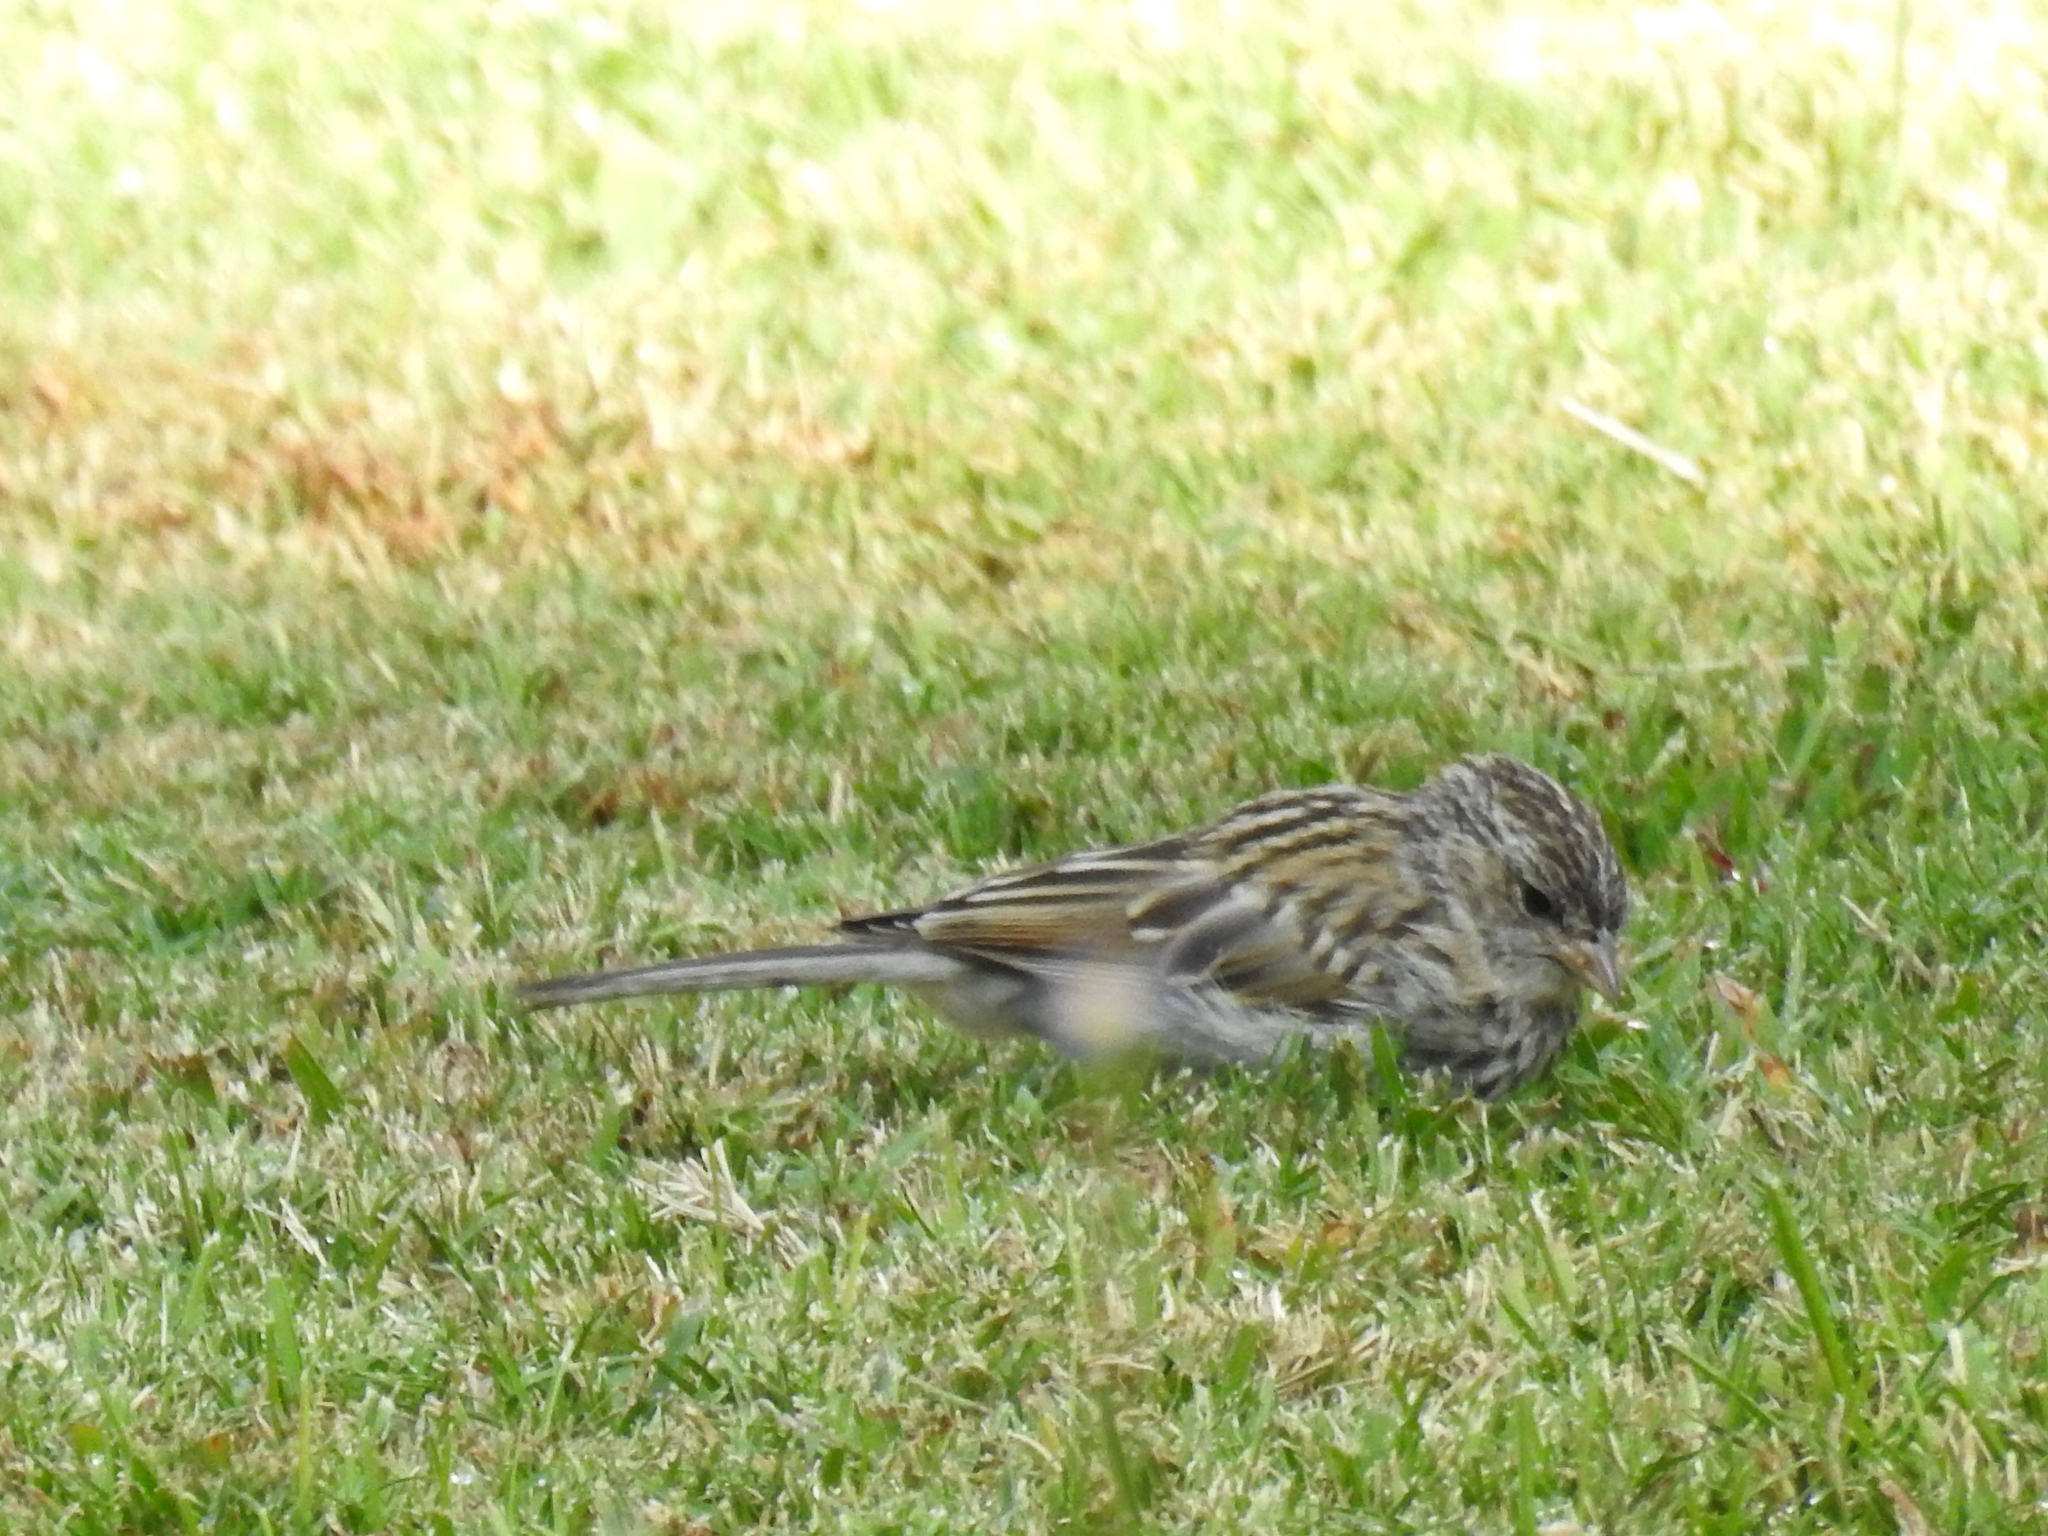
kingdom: Animalia
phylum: Chordata
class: Aves
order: Passeriformes
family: Passerellidae
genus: Spizella
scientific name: Spizella passerina
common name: Chipping sparrow
